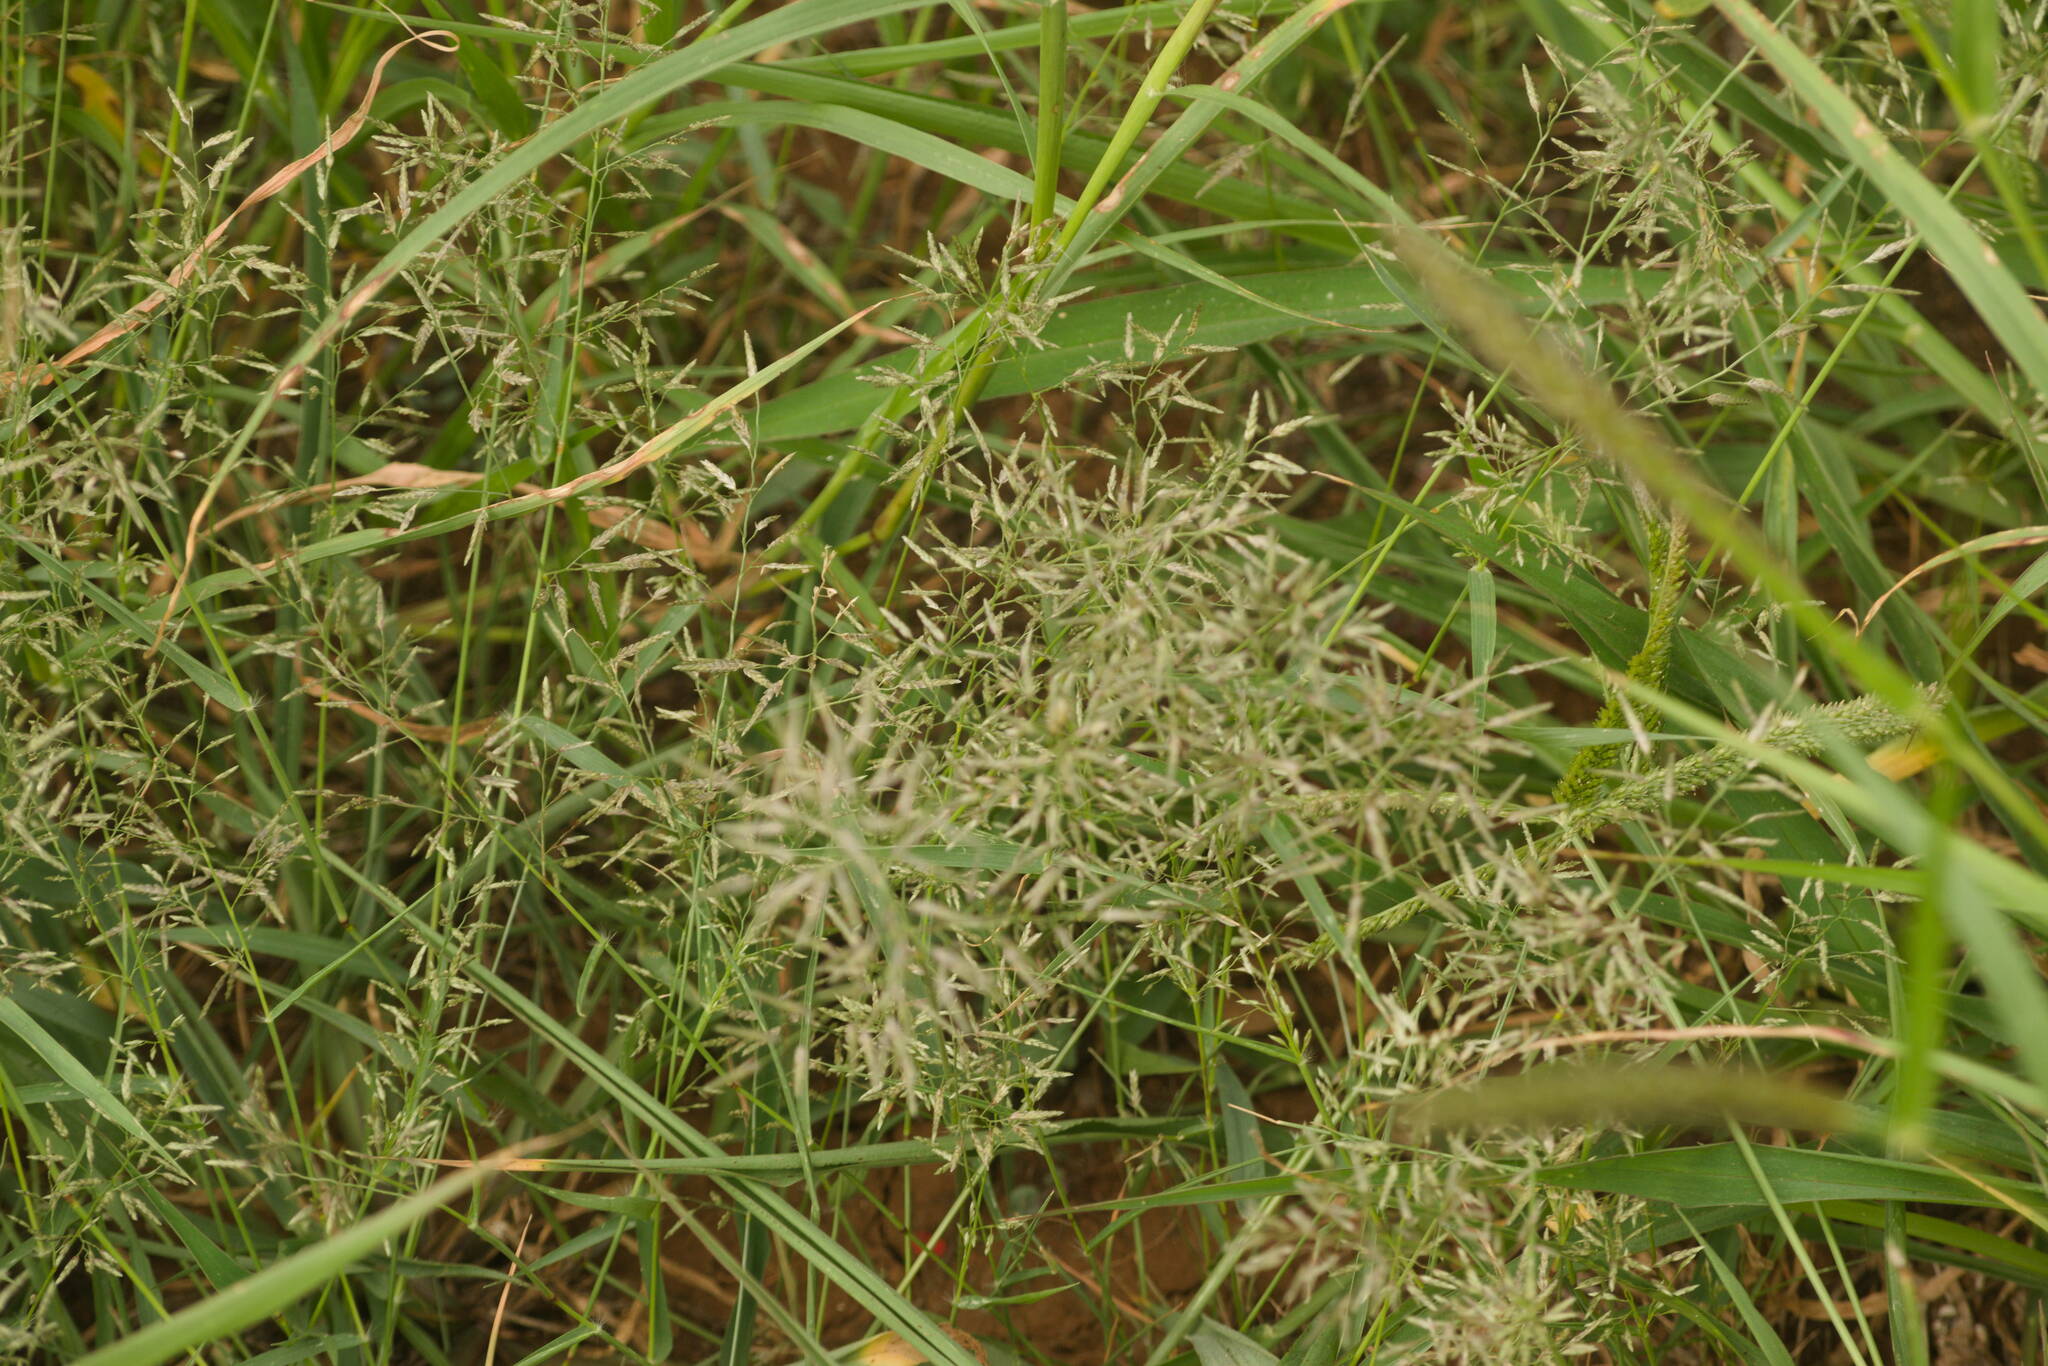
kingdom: Plantae
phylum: Tracheophyta
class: Liliopsida
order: Poales
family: Poaceae
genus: Eragrostis
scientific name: Eragrostis barrelieri
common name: Mediterranean lovegrass
